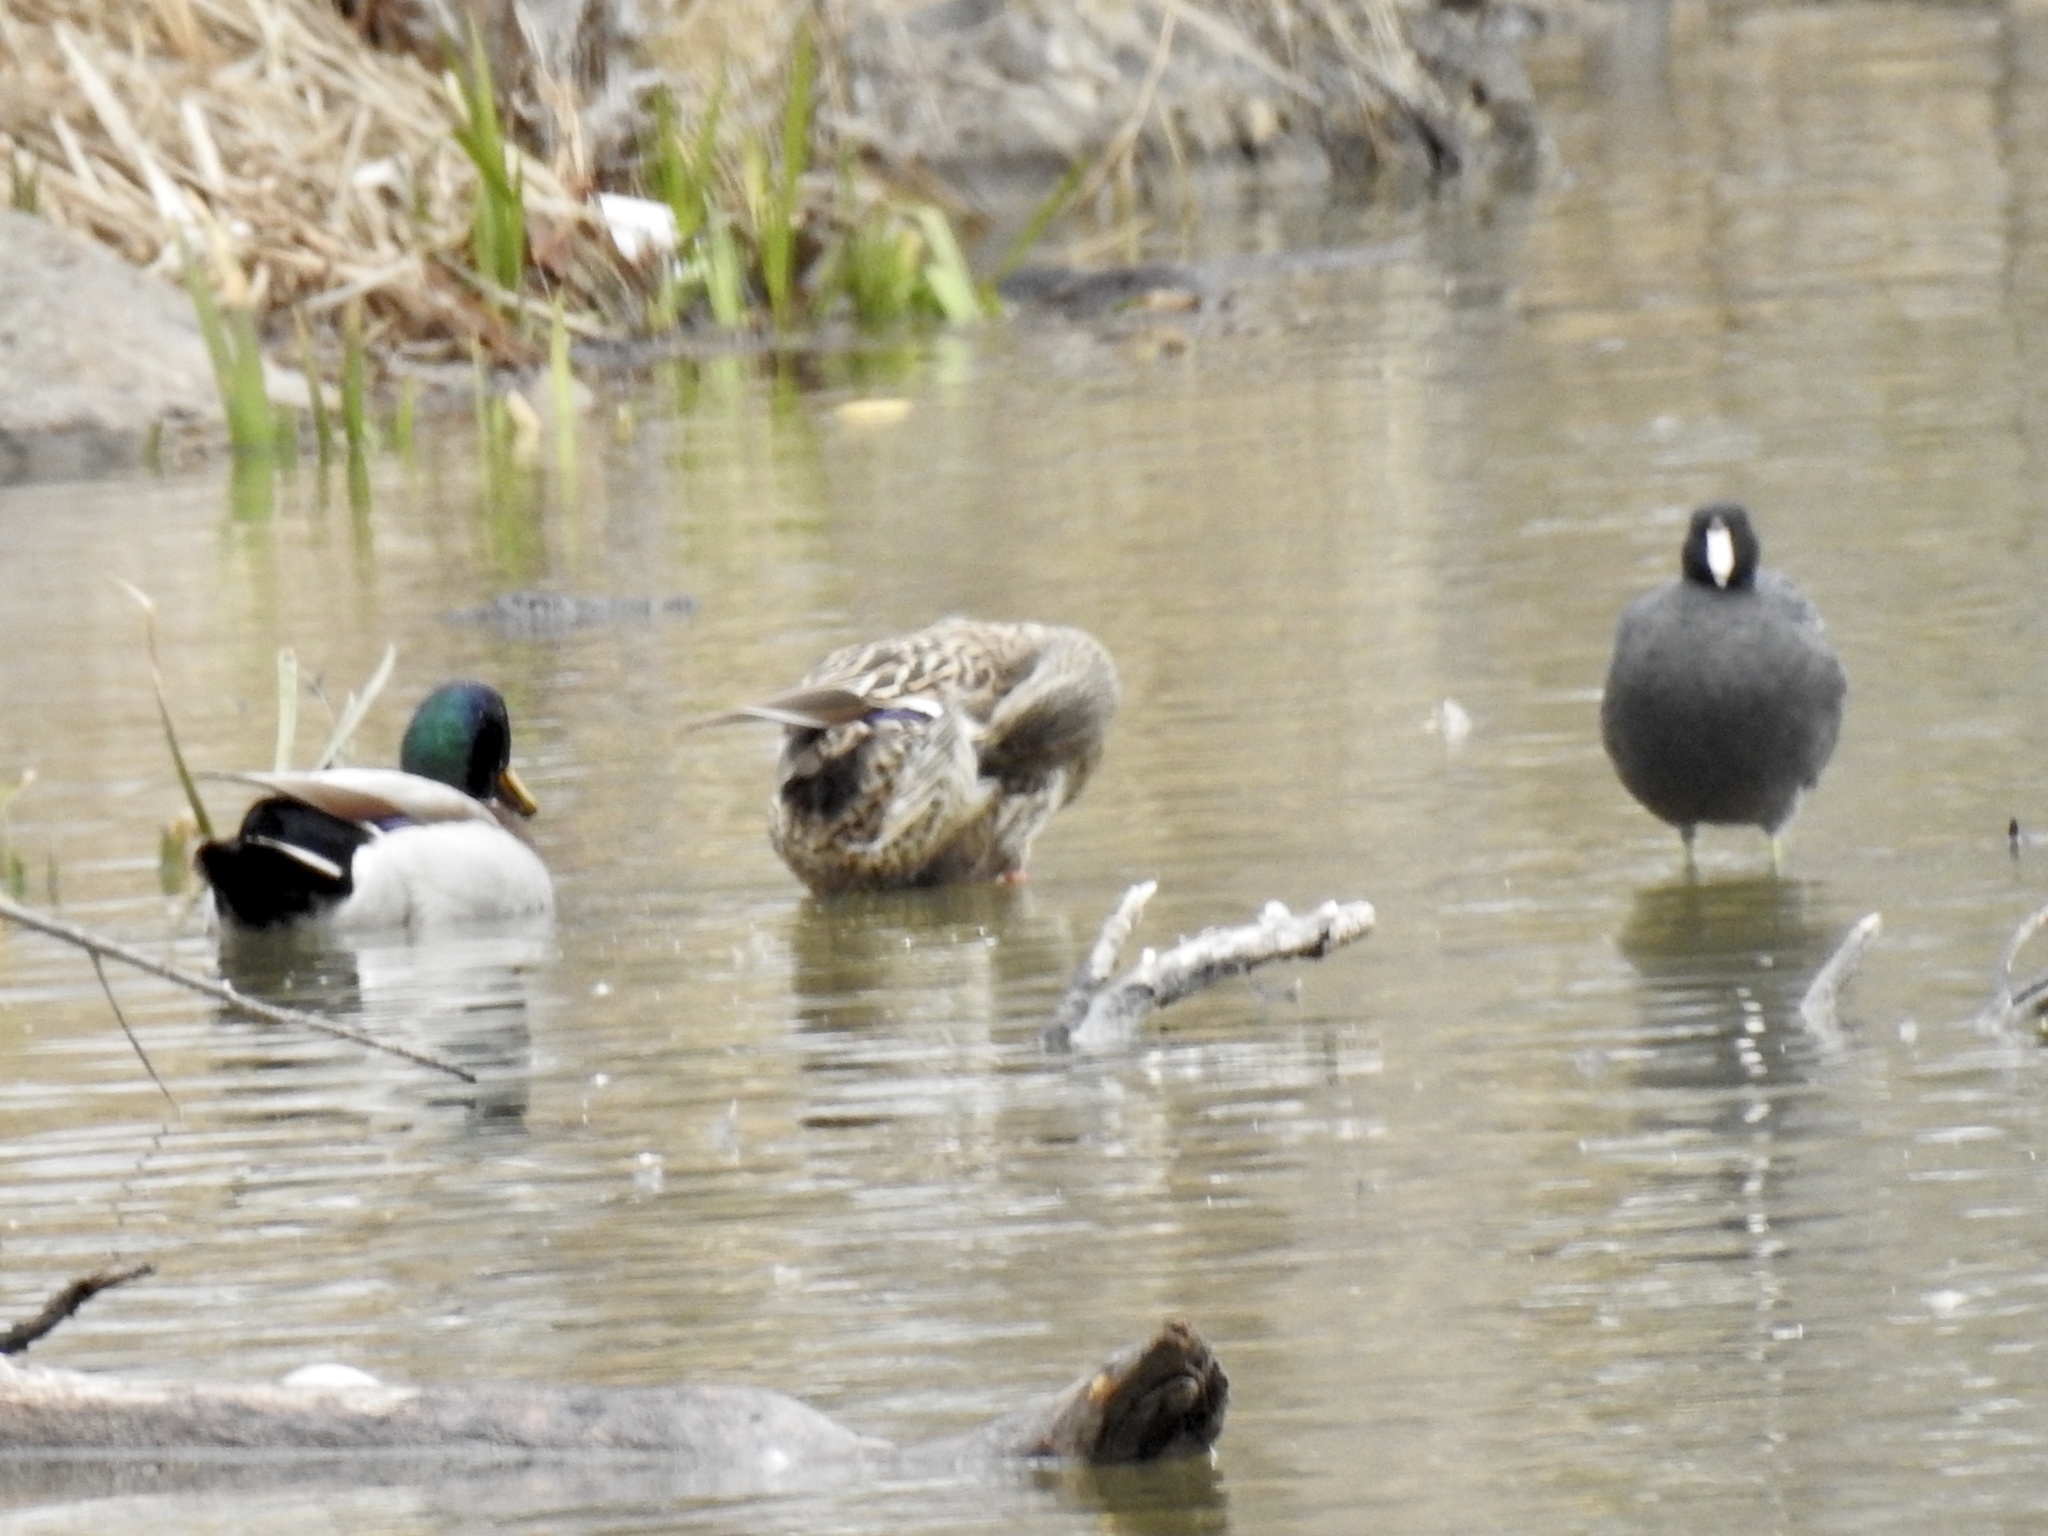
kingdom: Animalia
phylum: Chordata
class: Aves
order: Anseriformes
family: Anatidae
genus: Anas
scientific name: Anas platyrhynchos
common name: Mallard
